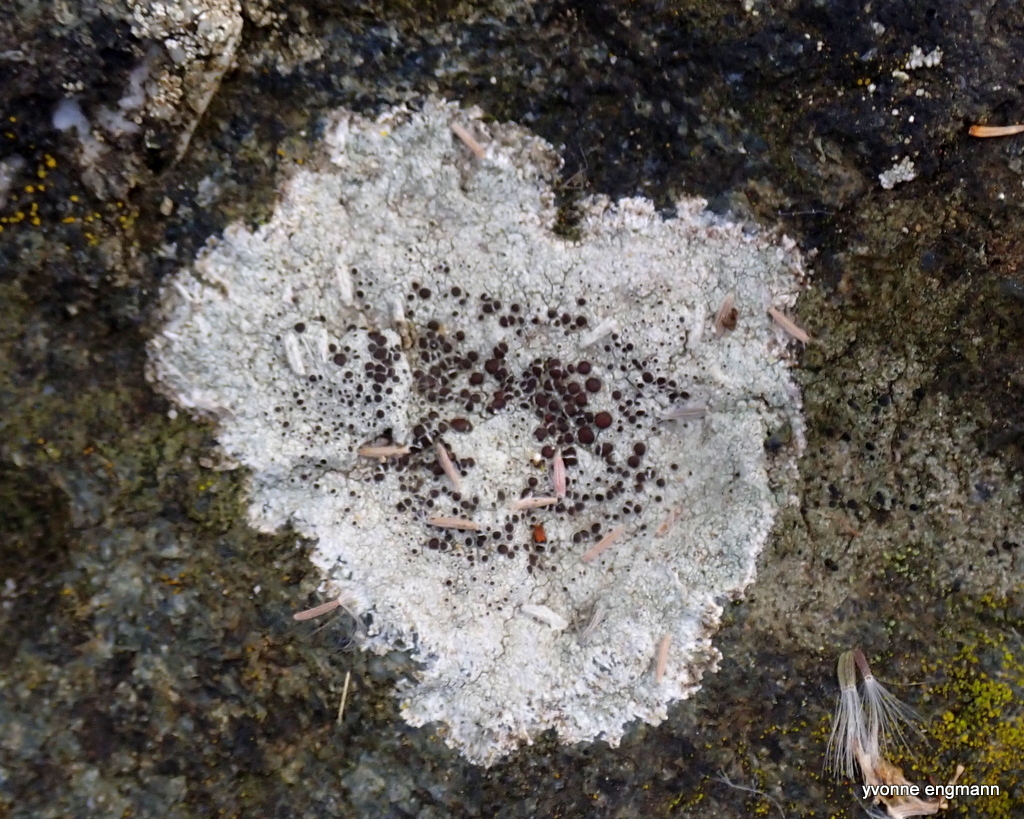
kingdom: Fungi
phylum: Ascomycota
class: Lecanoromycetes
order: Lecanorales
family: Lecanoraceae
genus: Lecanora
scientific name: Lecanora campestris
